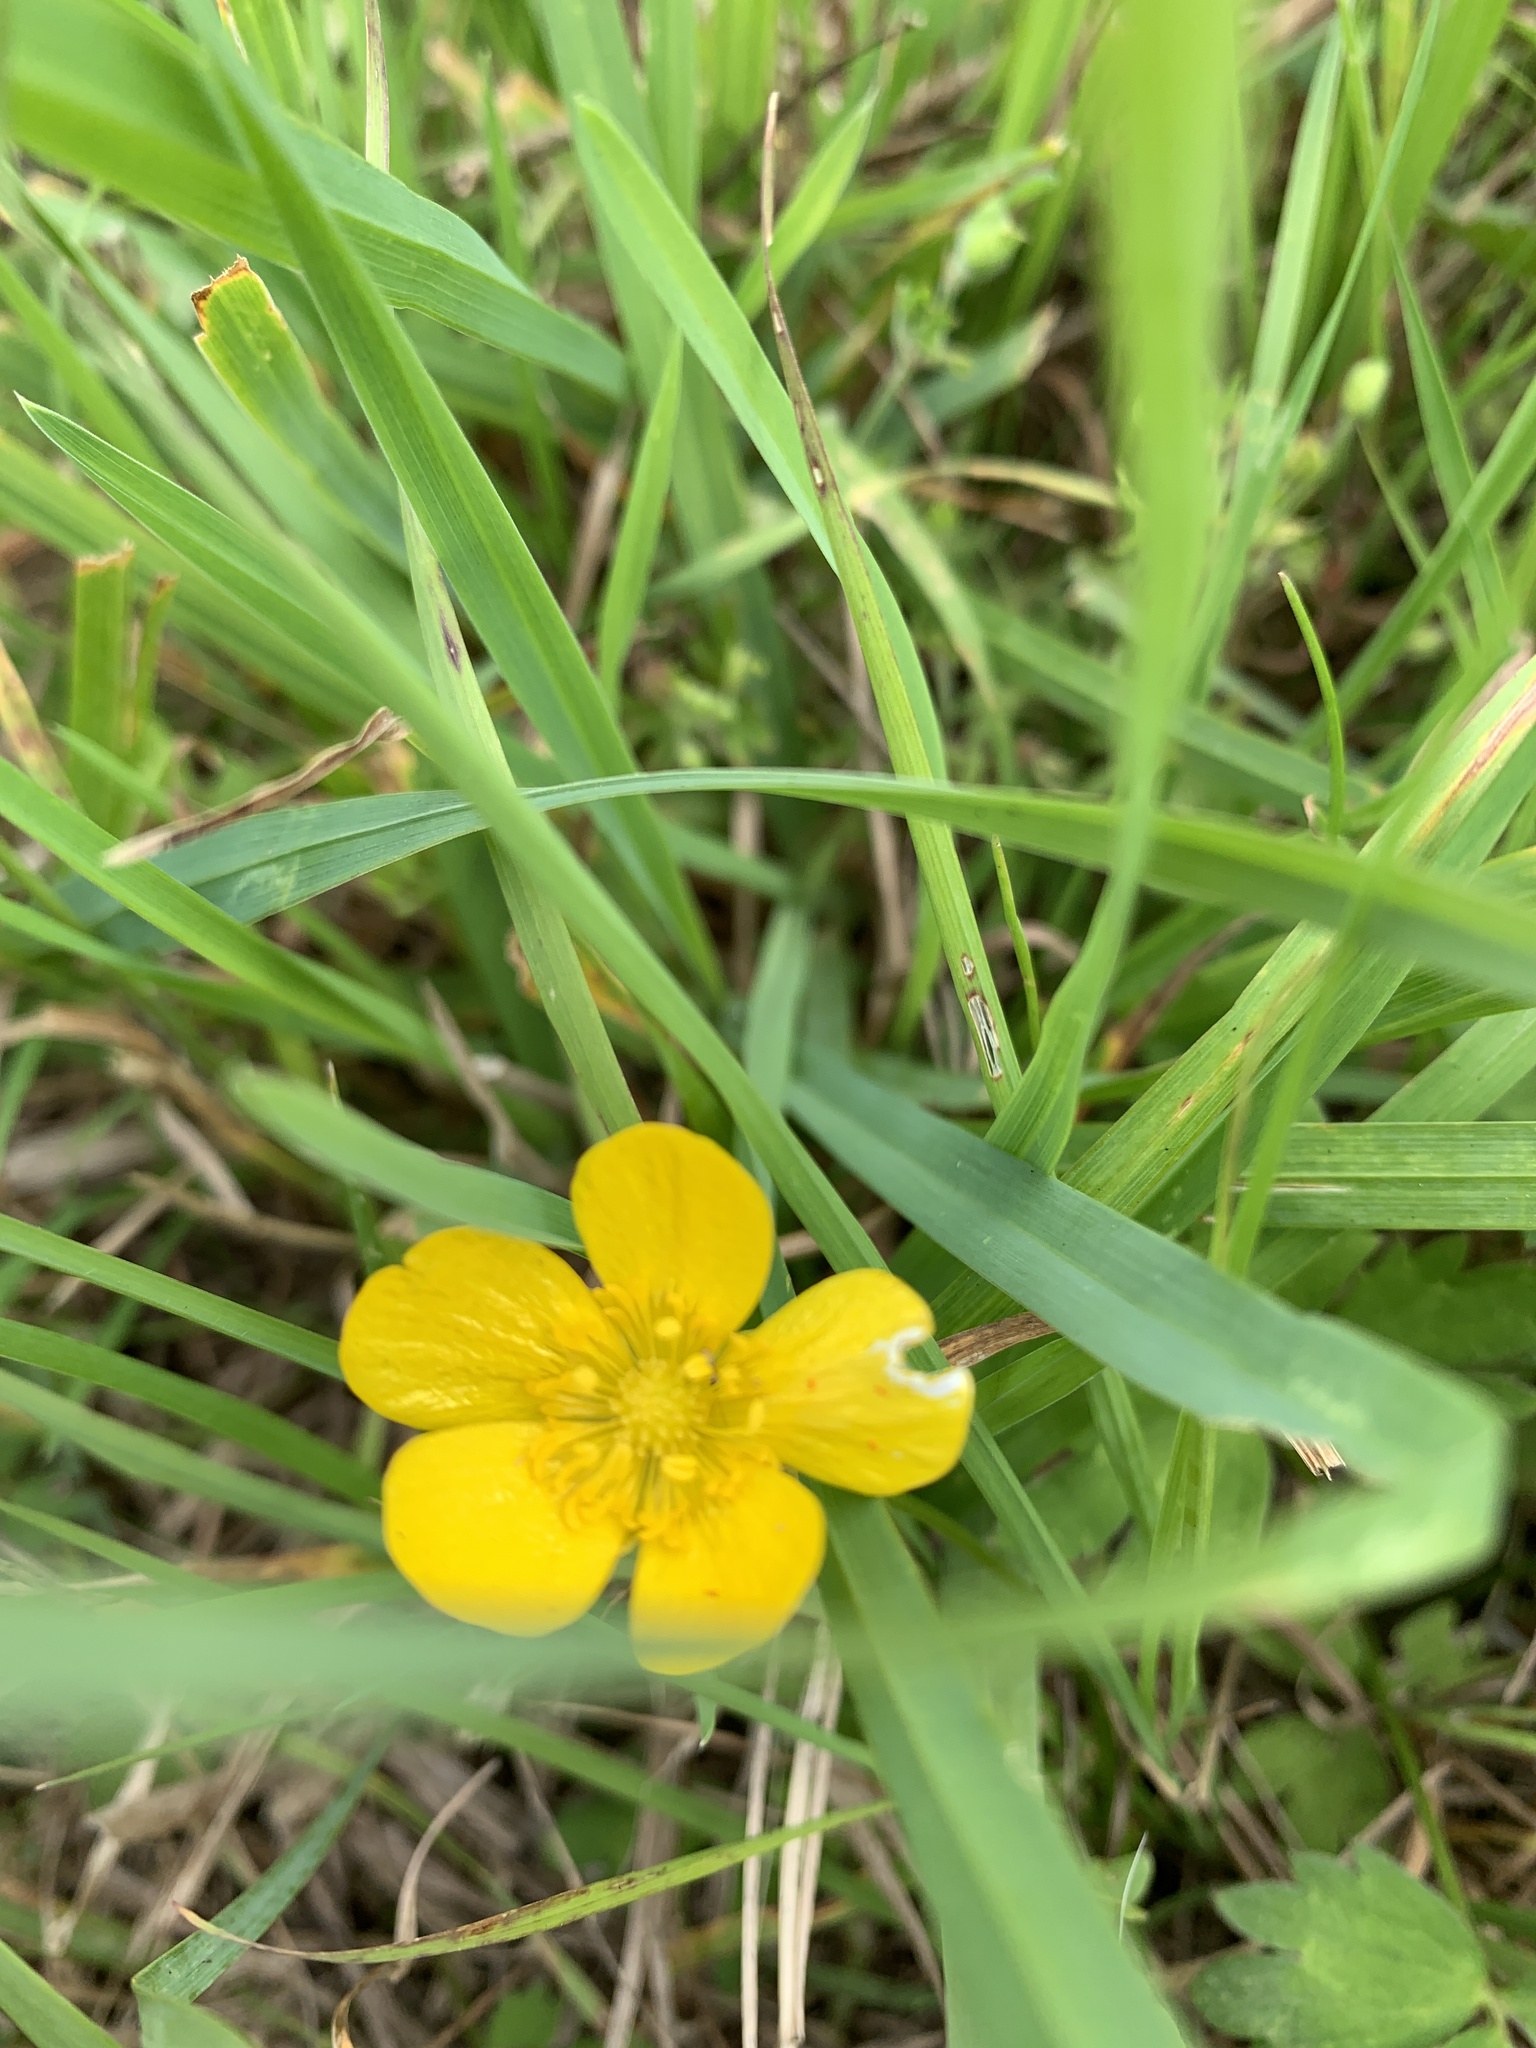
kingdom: Plantae
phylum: Tracheophyta
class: Magnoliopsida
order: Ranunculales
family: Ranunculaceae
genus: Ranunculus
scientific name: Ranunculus acris
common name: Meadow buttercup
